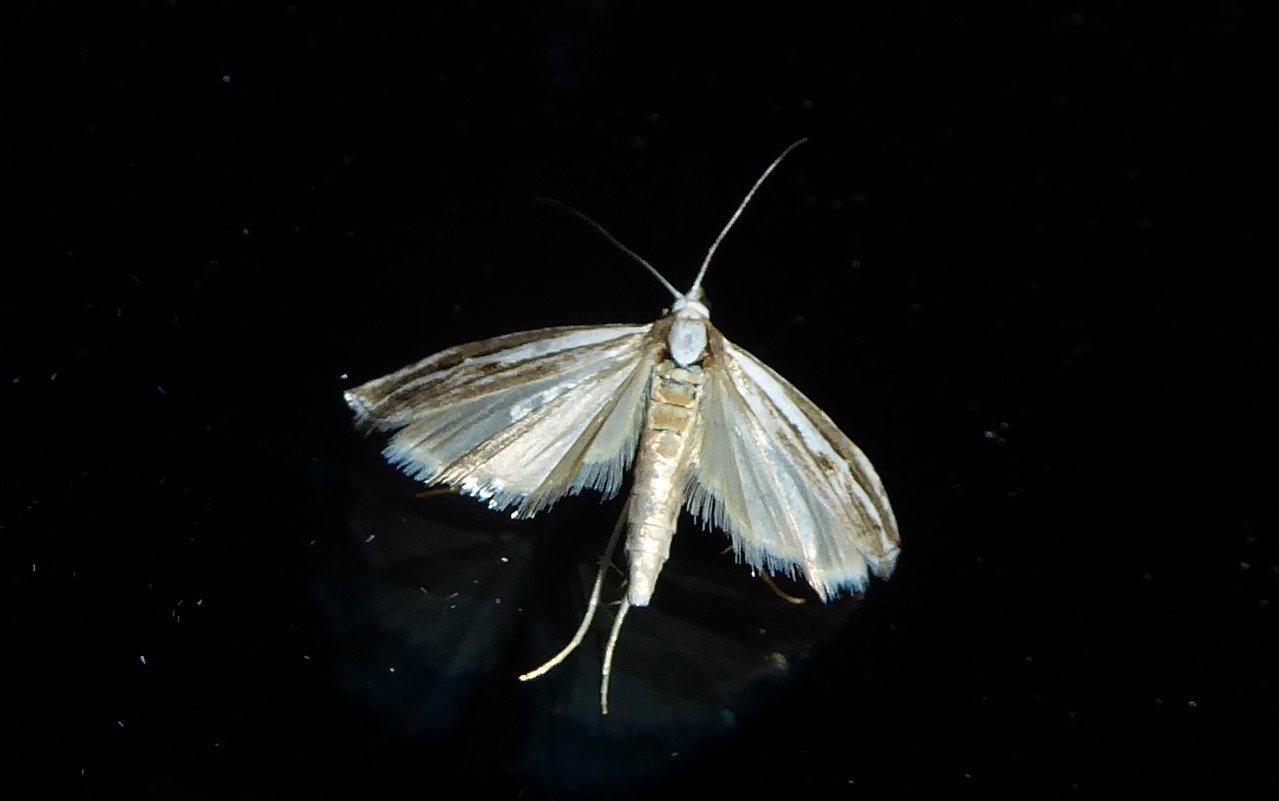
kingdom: Animalia
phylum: Arthropoda
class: Insecta
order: Lepidoptera
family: Crambidae
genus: Orocrambus
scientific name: Orocrambus vittellus
